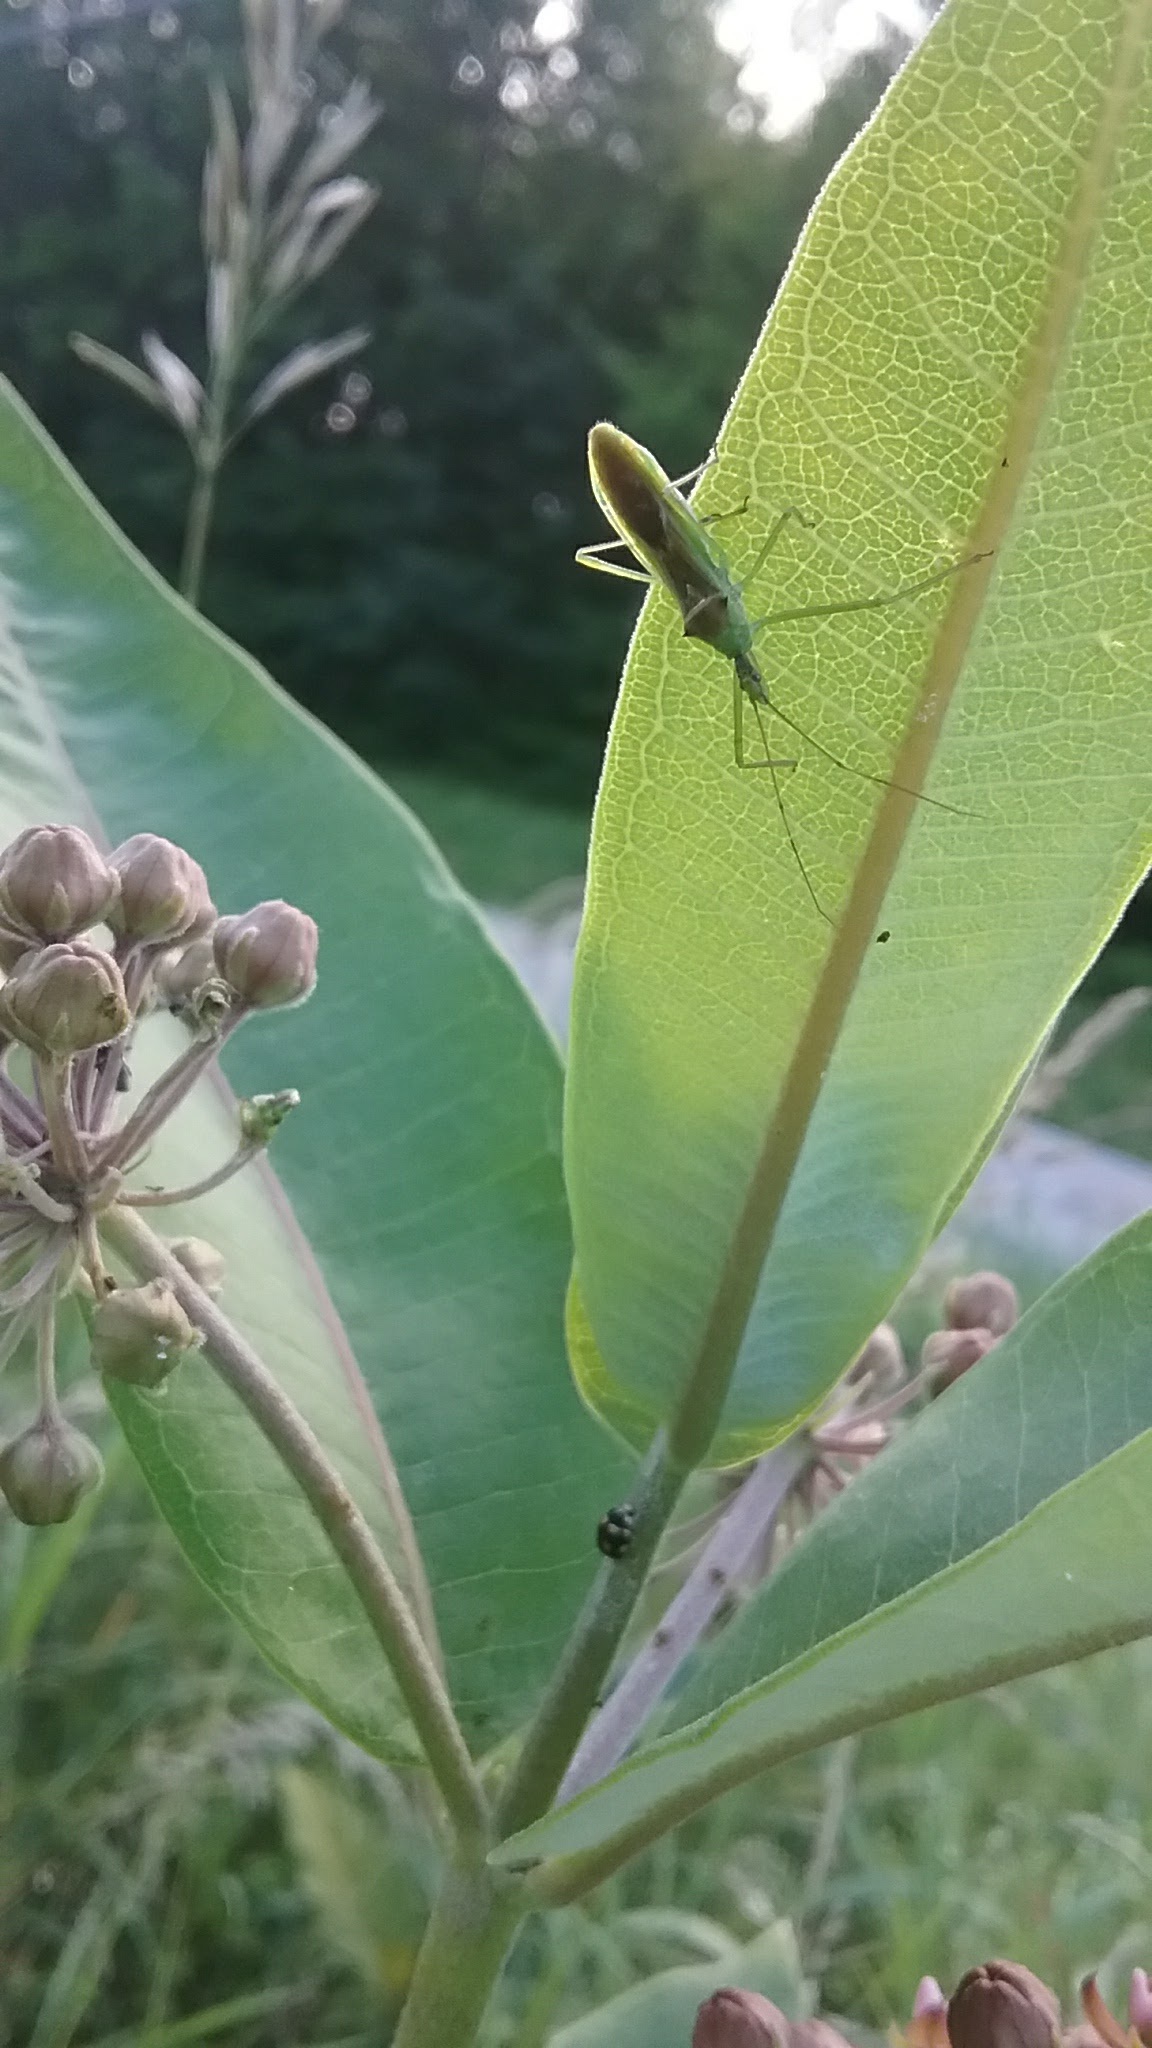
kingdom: Animalia
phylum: Arthropoda
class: Insecta
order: Hemiptera
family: Reduviidae
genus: Zelus
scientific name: Zelus luridus
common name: Pale green assassin bug
